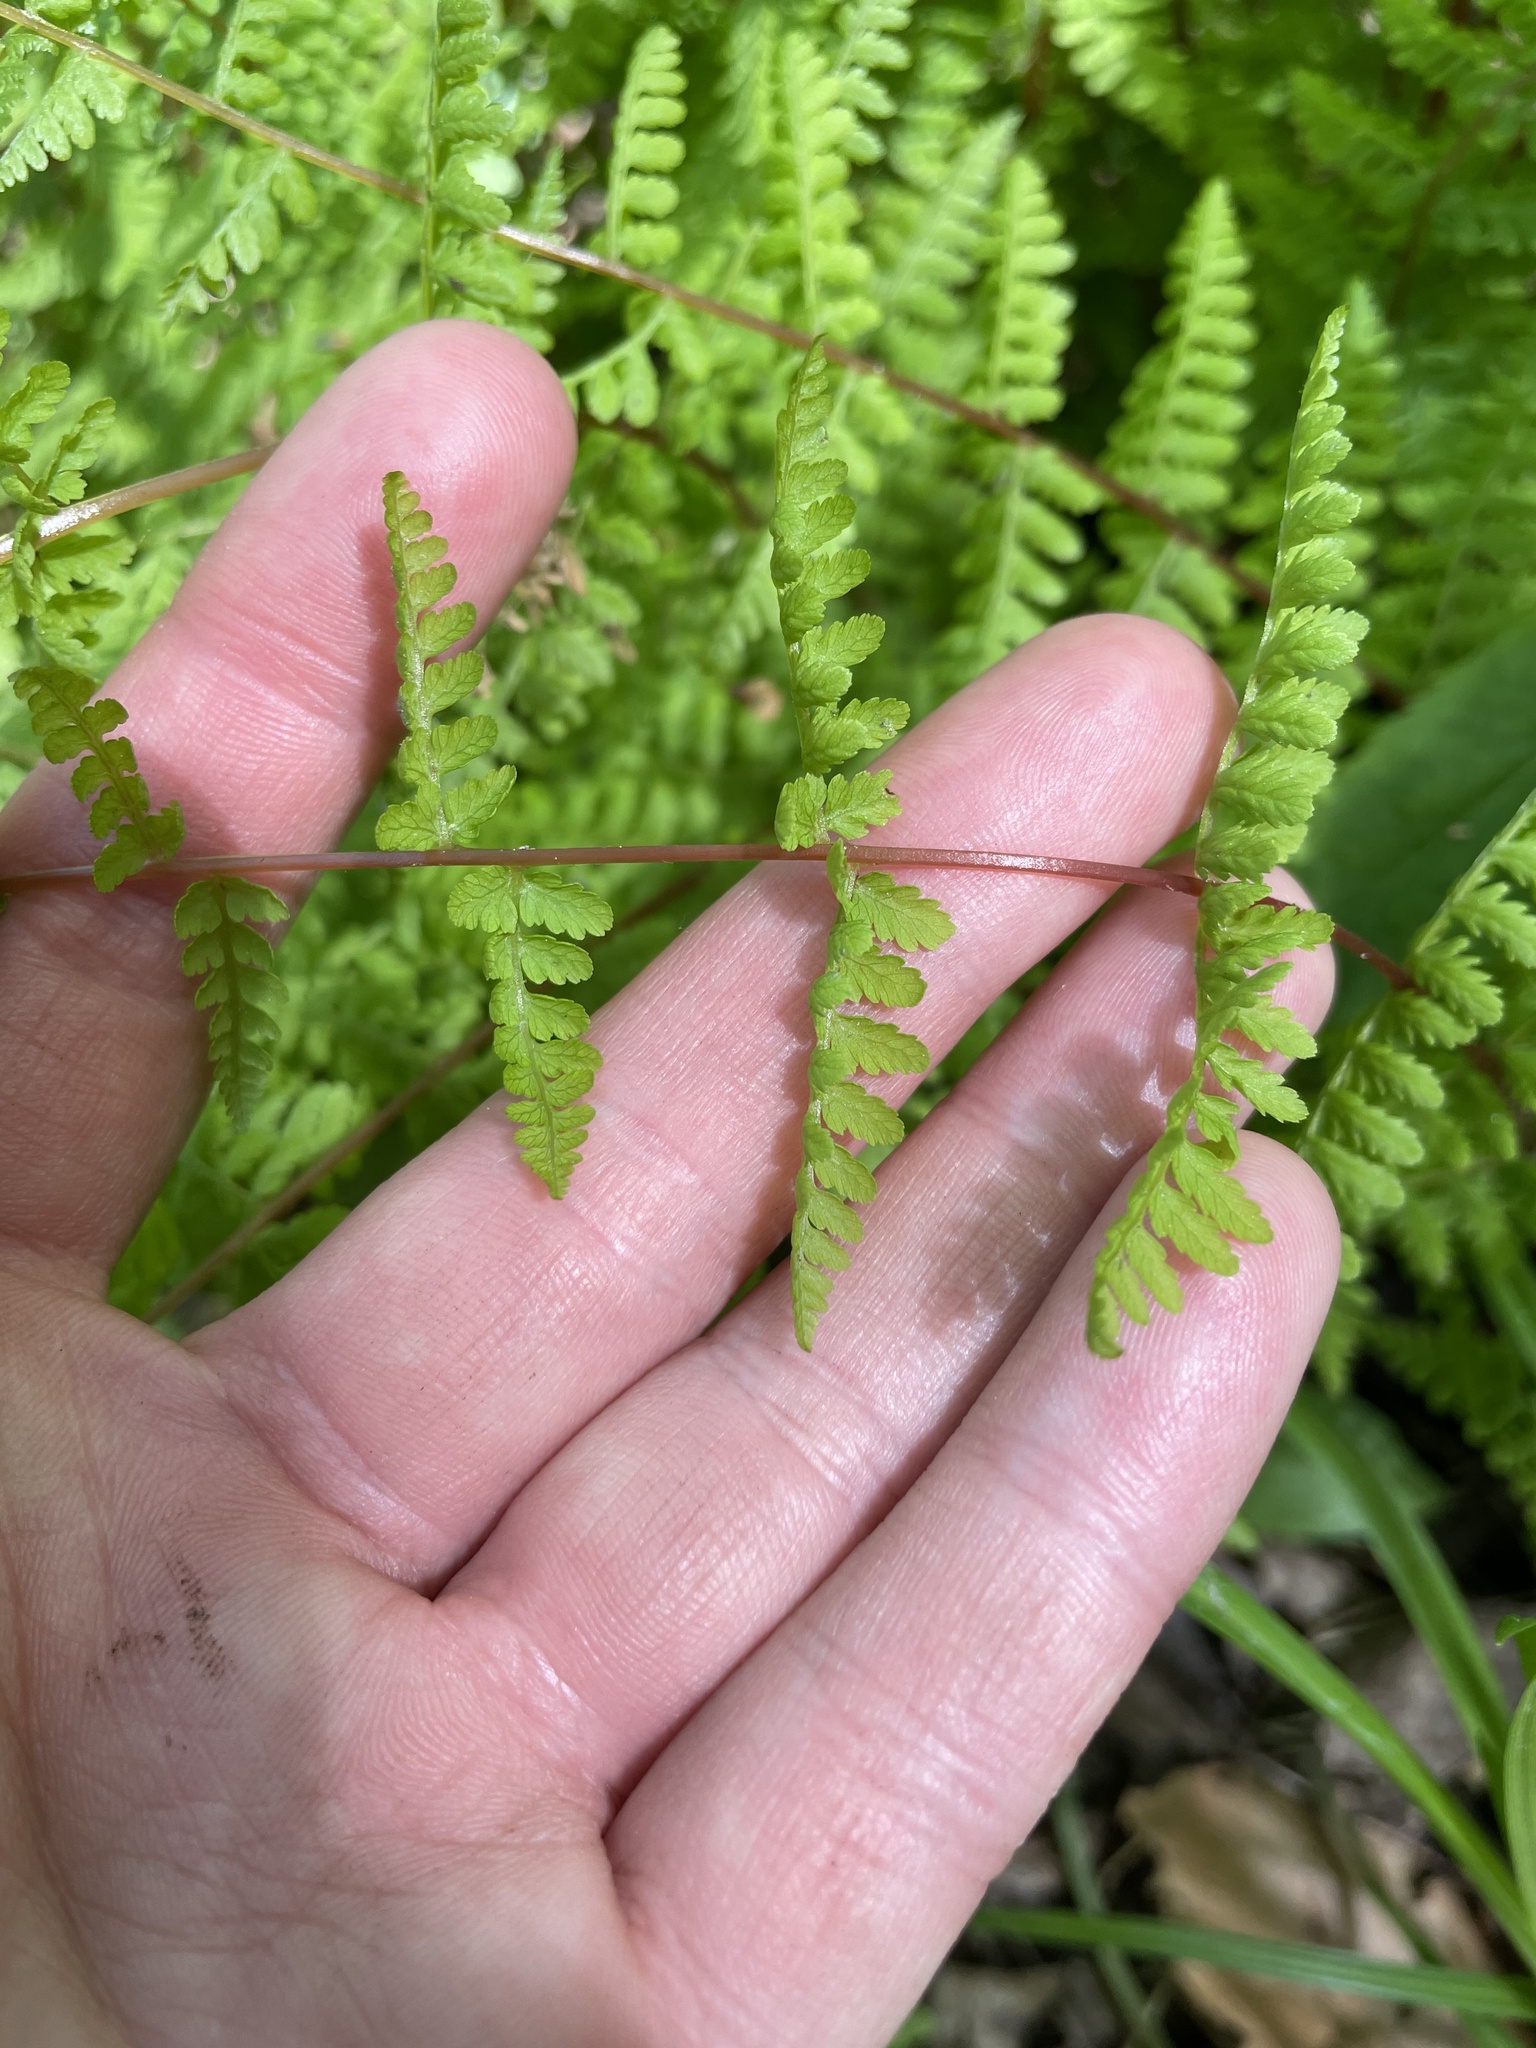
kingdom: Plantae
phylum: Tracheophyta
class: Polypodiopsida
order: Polypodiales
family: Cystopteridaceae
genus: Cystopteris
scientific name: Cystopteris bulbifera
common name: Bulblet bladder fern
